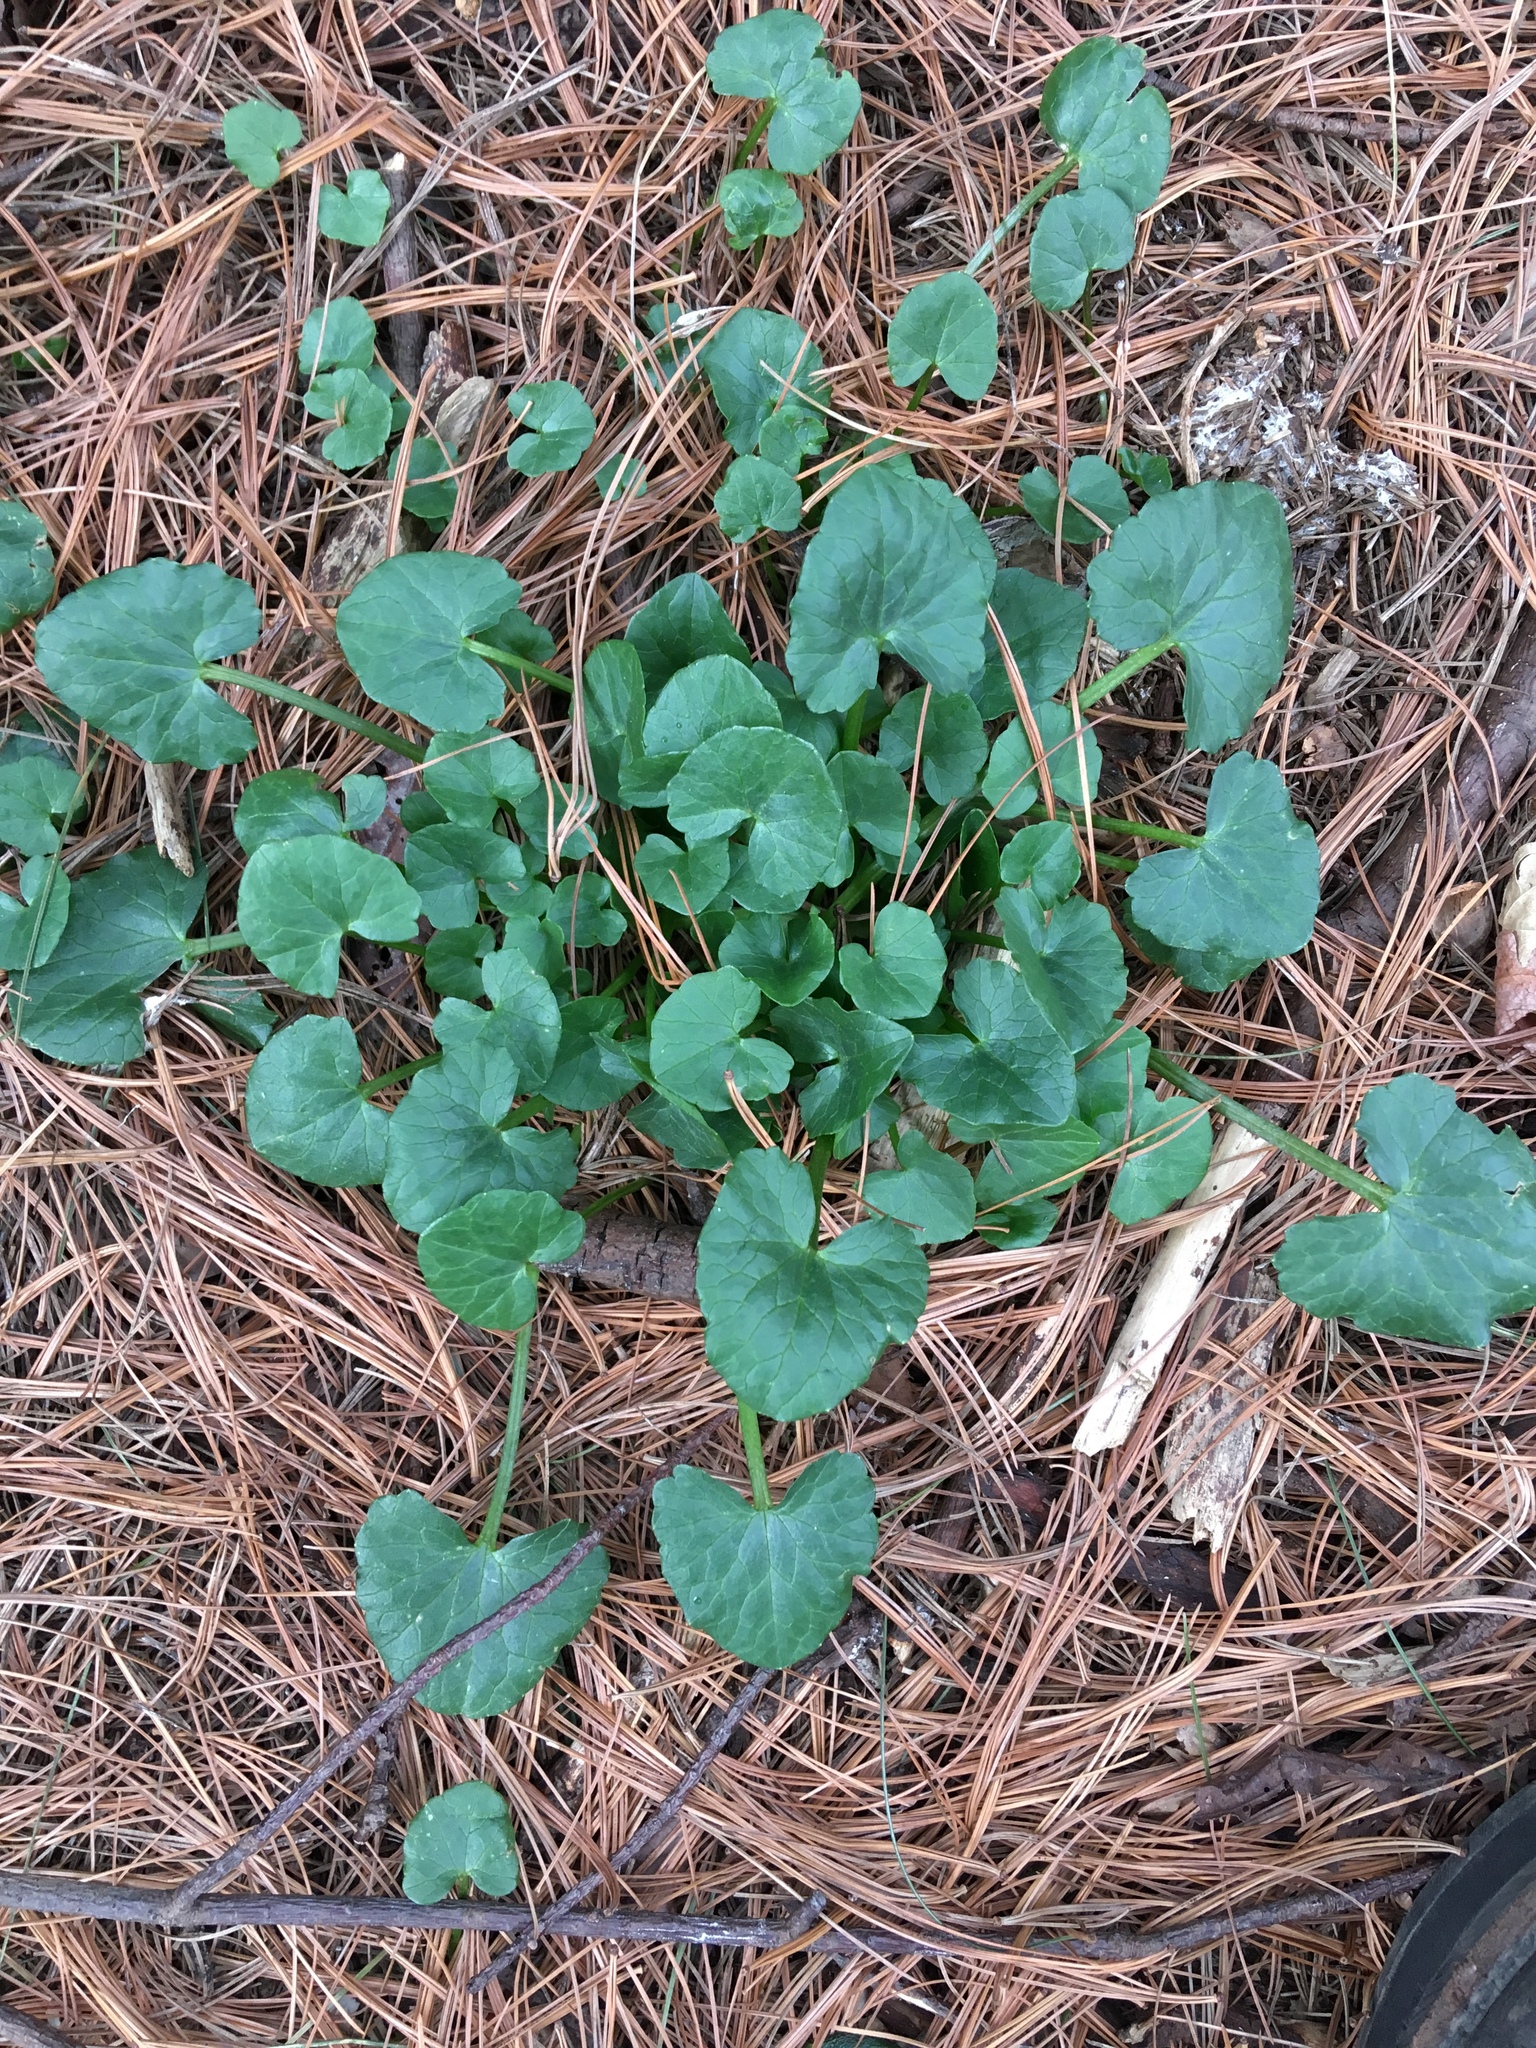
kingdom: Plantae
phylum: Tracheophyta
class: Magnoliopsida
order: Ranunculales
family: Ranunculaceae
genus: Ficaria
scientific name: Ficaria verna
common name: Lesser celandine
